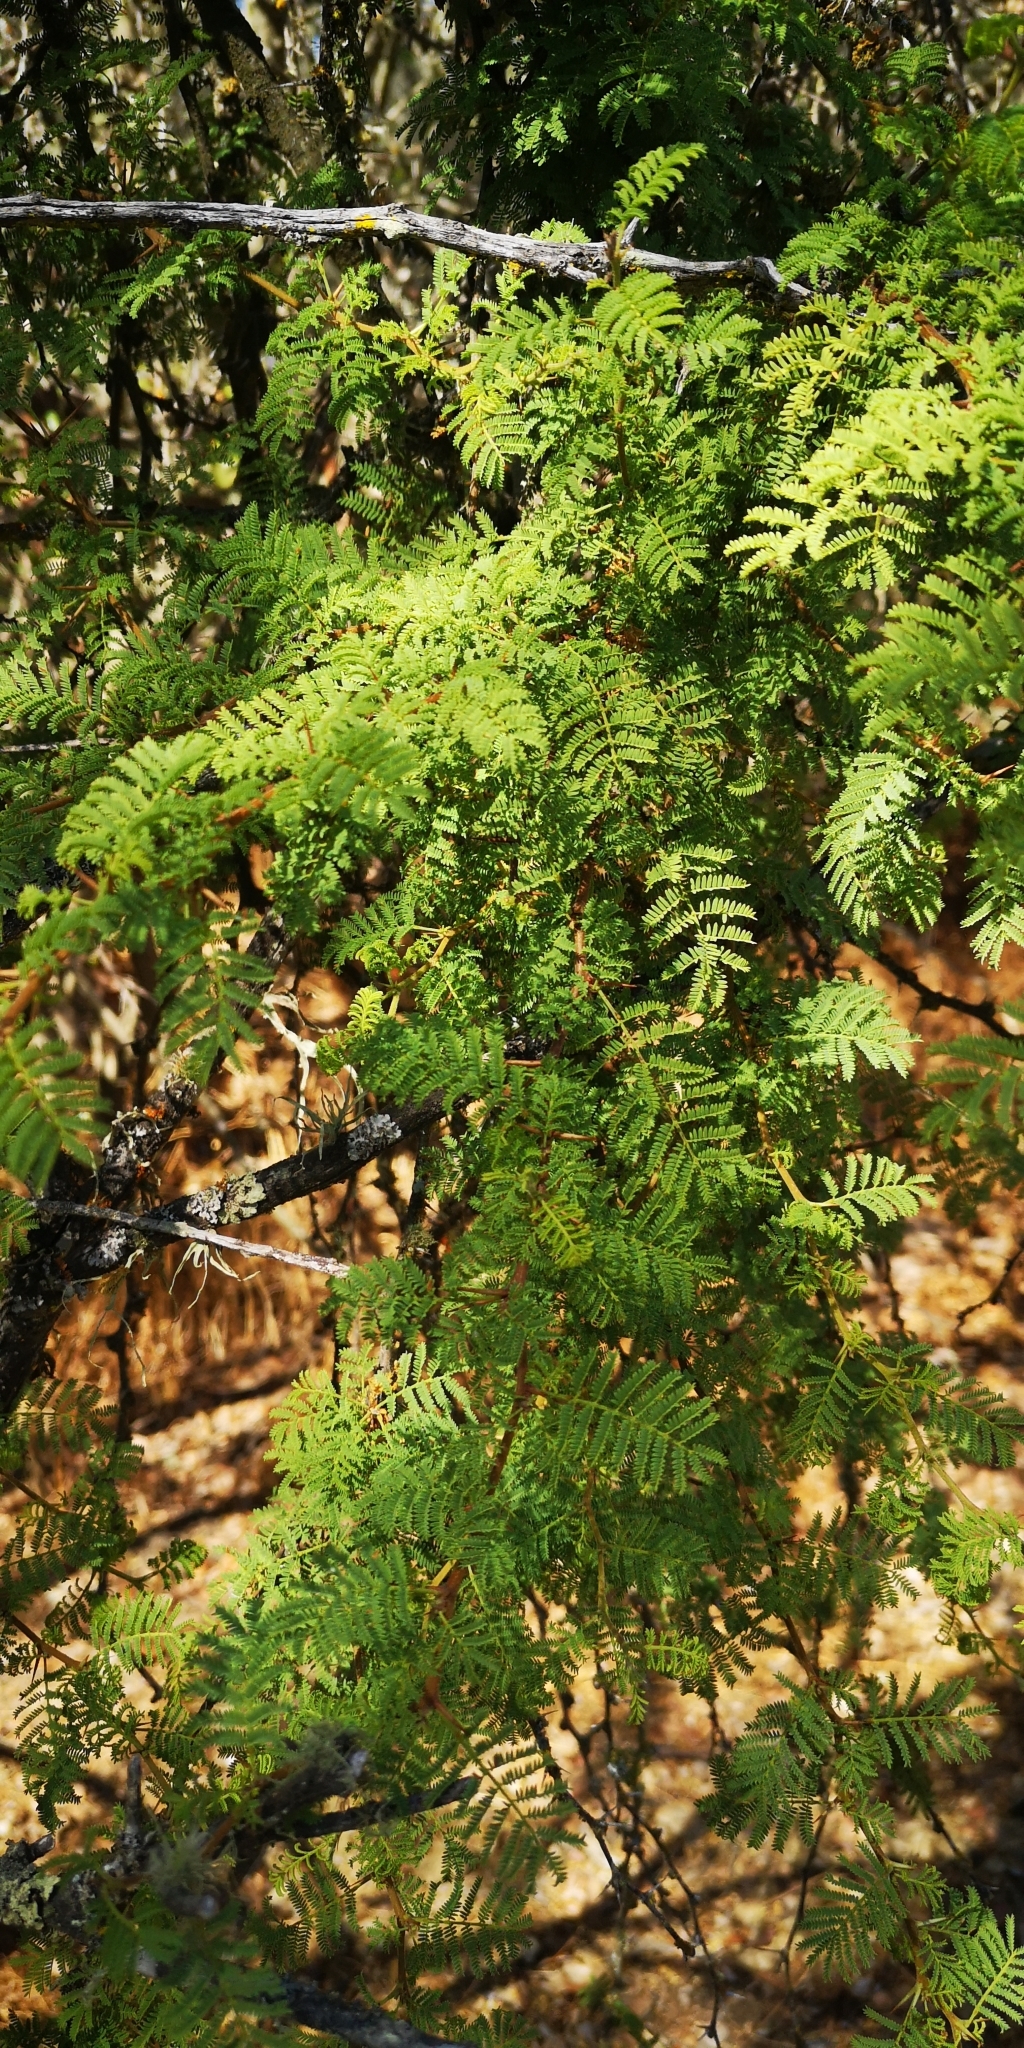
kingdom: Plantae
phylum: Tracheophyta
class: Magnoliopsida
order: Fabales
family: Fabaceae
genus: Vachellia
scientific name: Vachellia caven
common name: Roman cassie
